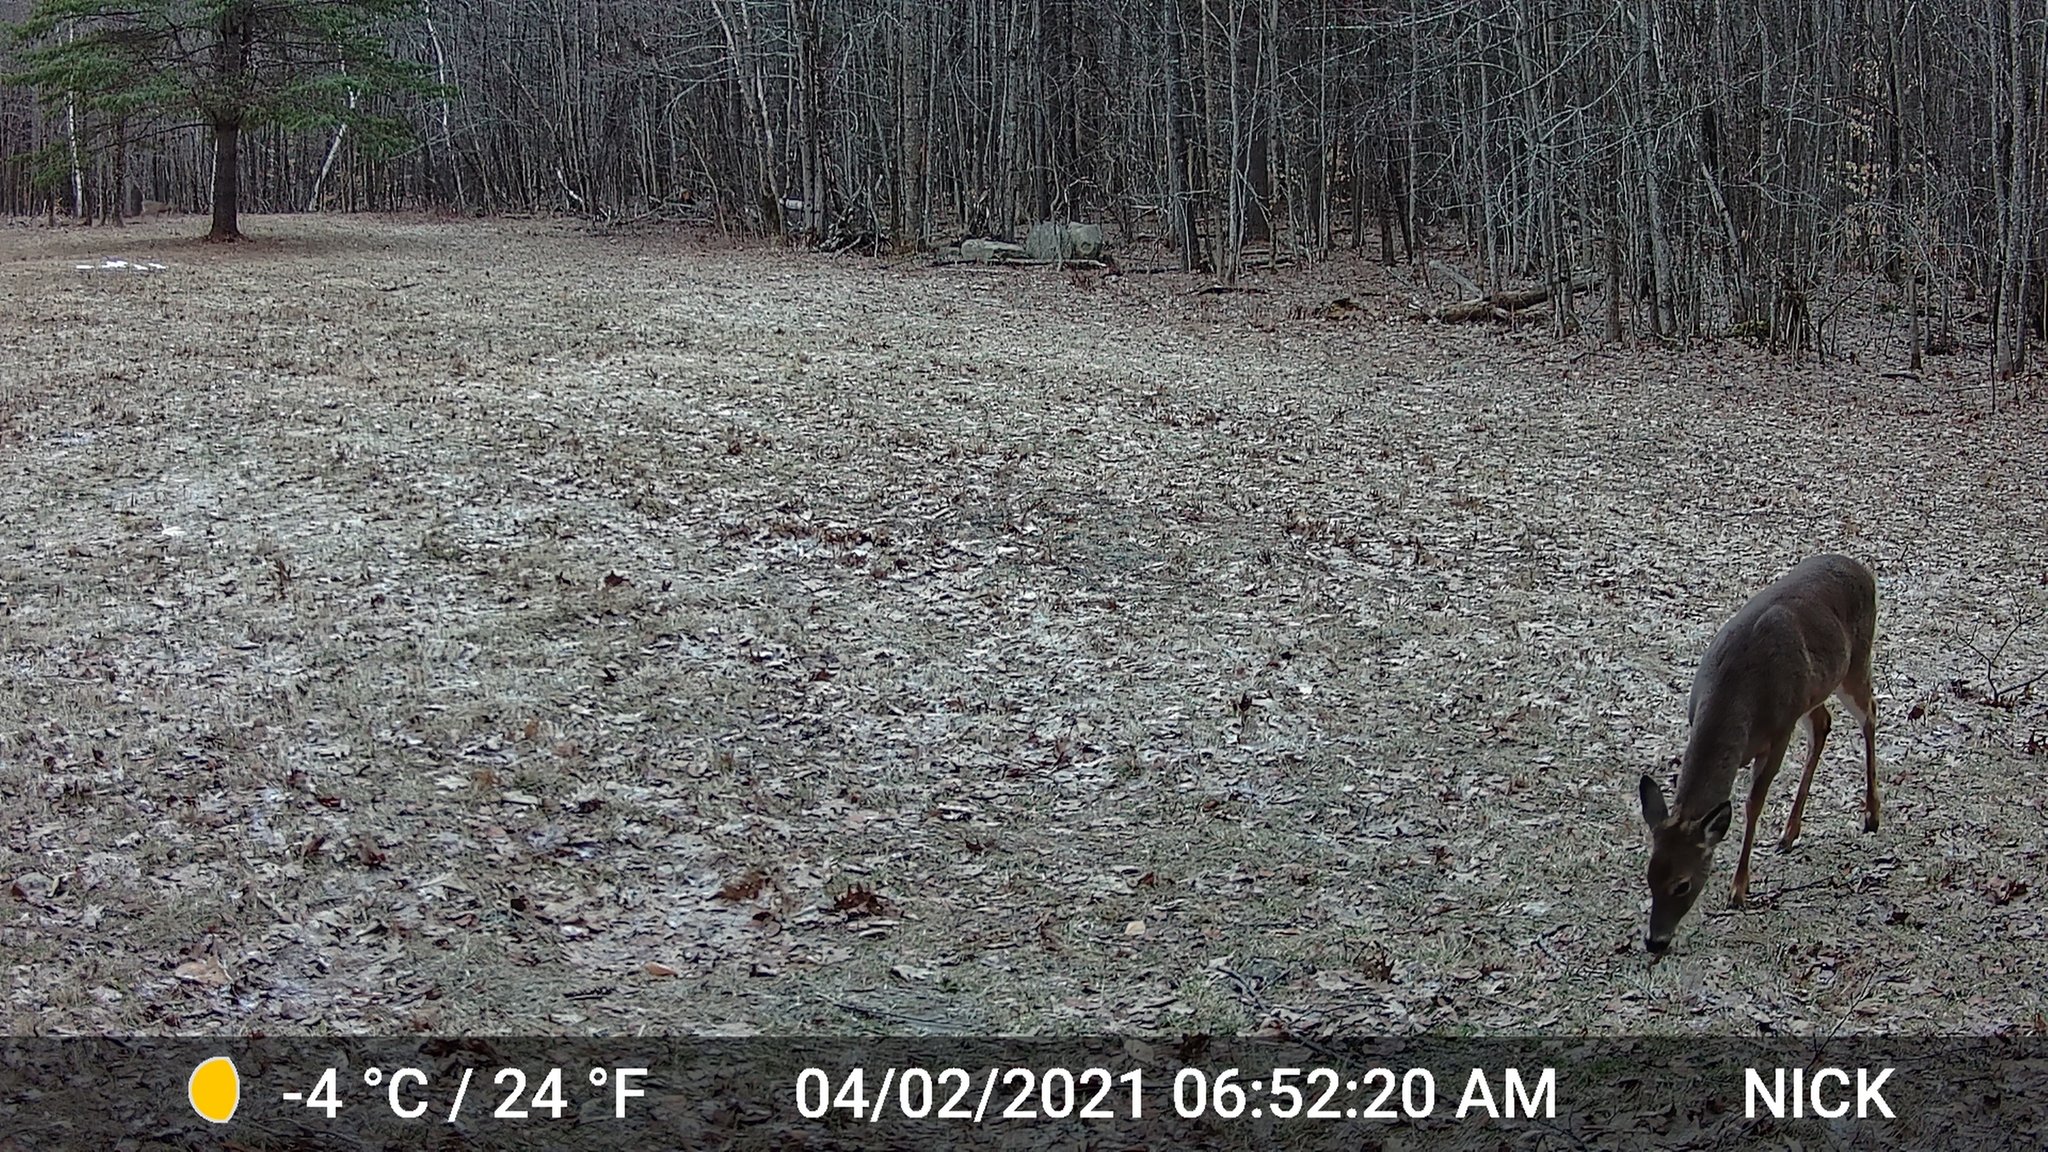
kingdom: Animalia
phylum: Chordata
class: Mammalia
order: Artiodactyla
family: Cervidae
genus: Odocoileus
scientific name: Odocoileus virginianus
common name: White-tailed deer
